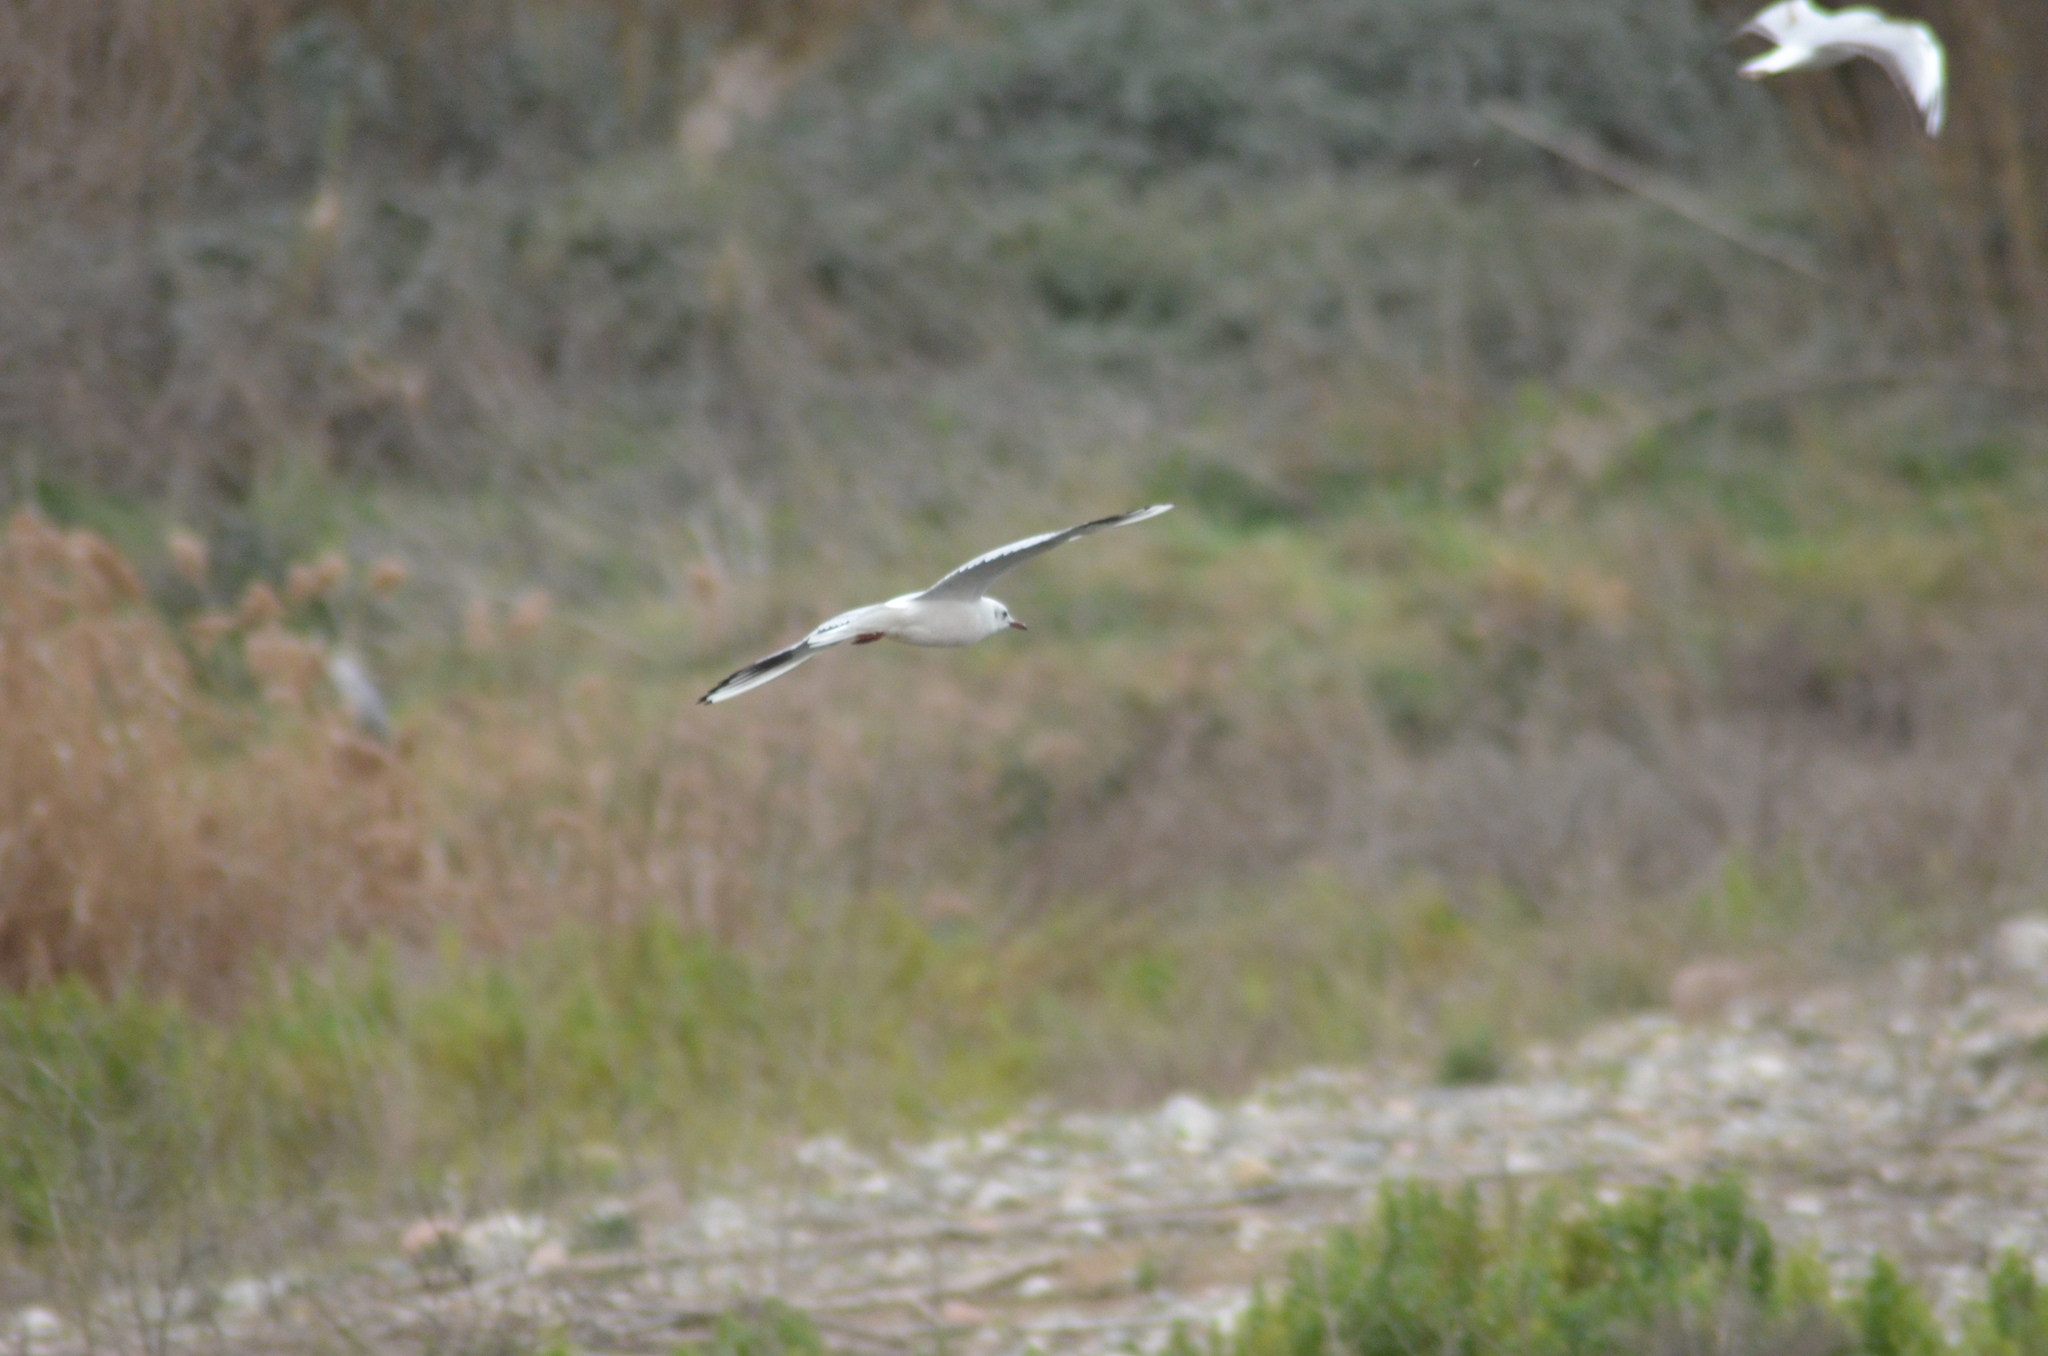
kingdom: Animalia
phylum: Chordata
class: Aves
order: Charadriiformes
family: Laridae
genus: Chroicocephalus
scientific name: Chroicocephalus ridibundus
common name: Black-headed gull
